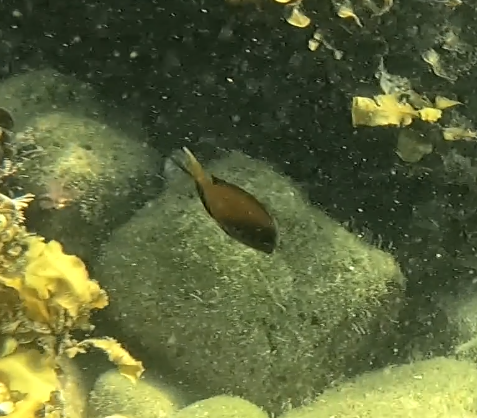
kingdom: Animalia
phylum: Chordata
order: Perciformes
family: Acanthuridae
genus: Acanthurus
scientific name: Acanthurus nigrofuscus
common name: Blackspot surgeonfish
